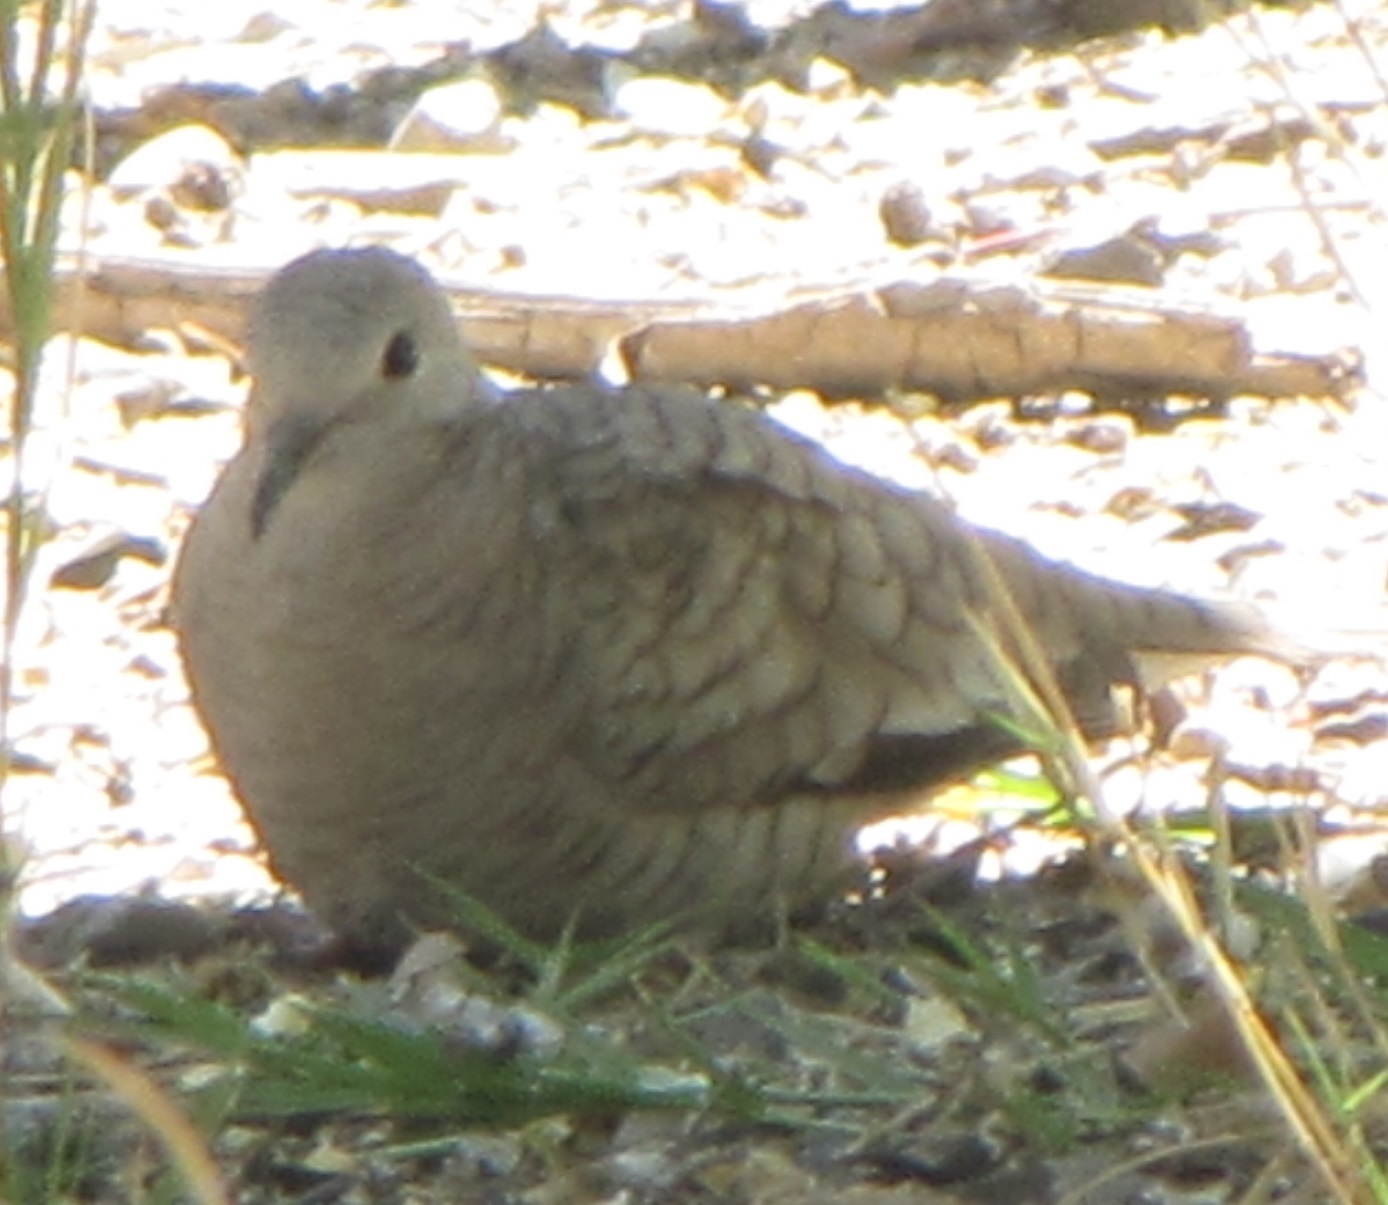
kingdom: Animalia
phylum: Chordata
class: Aves
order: Columbiformes
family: Columbidae
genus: Columbina
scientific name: Columbina inca
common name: Inca dove
